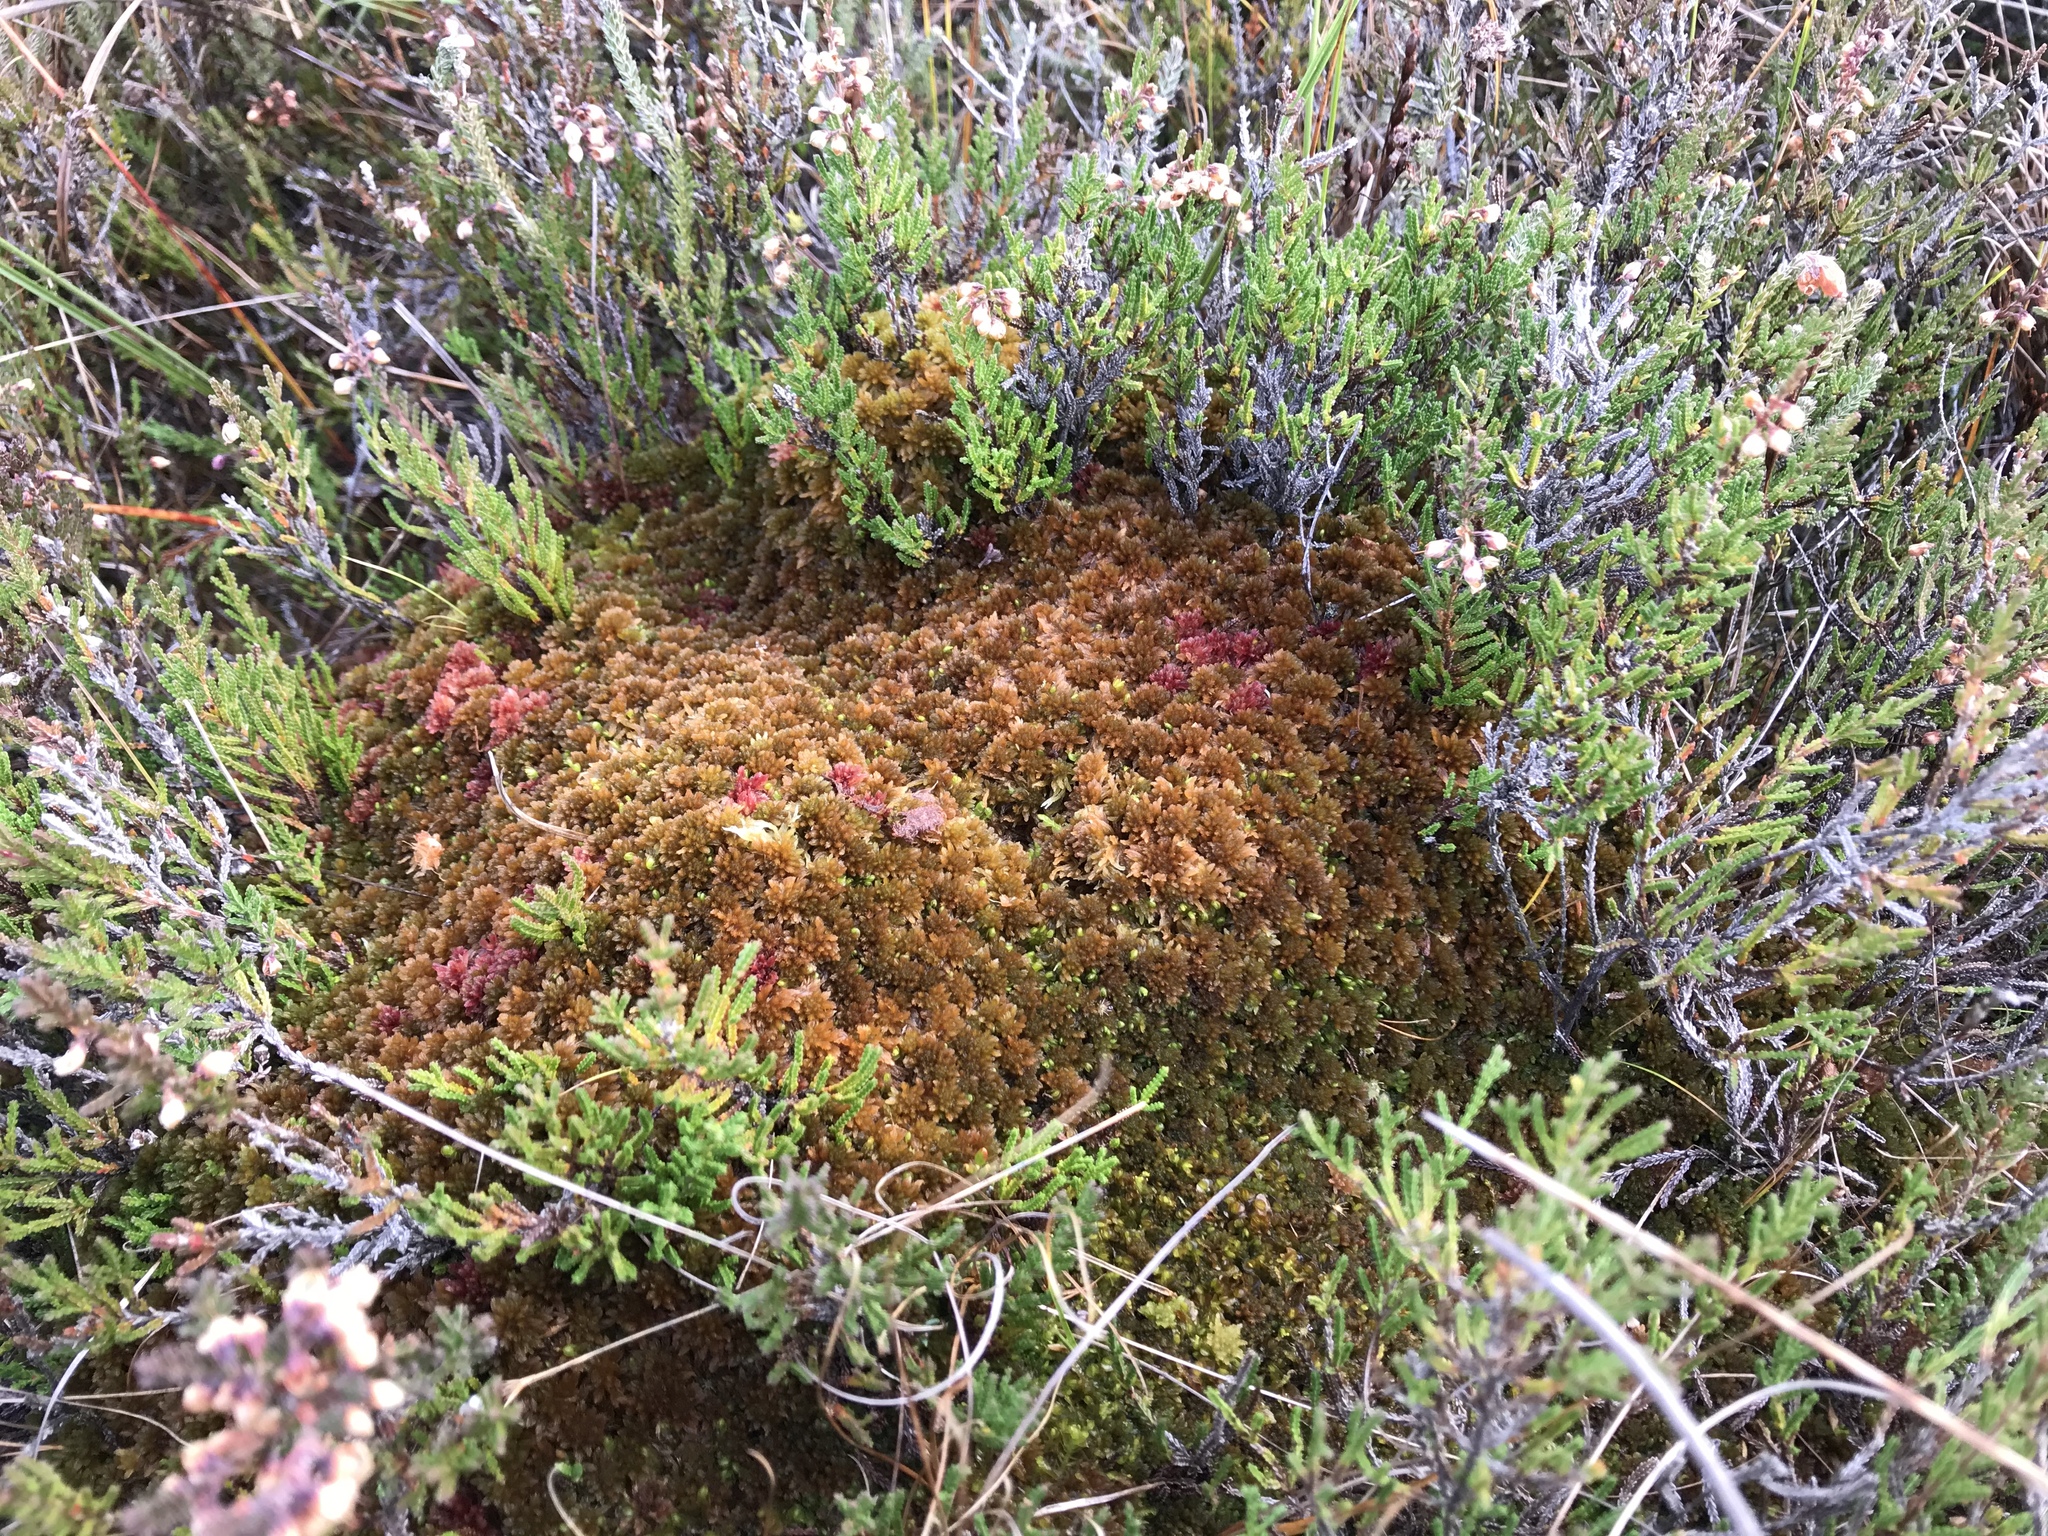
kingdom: Plantae
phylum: Bryophyta
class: Sphagnopsida
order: Sphagnales
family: Sphagnaceae
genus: Sphagnum
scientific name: Sphagnum fuscum
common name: Brown peat moss
